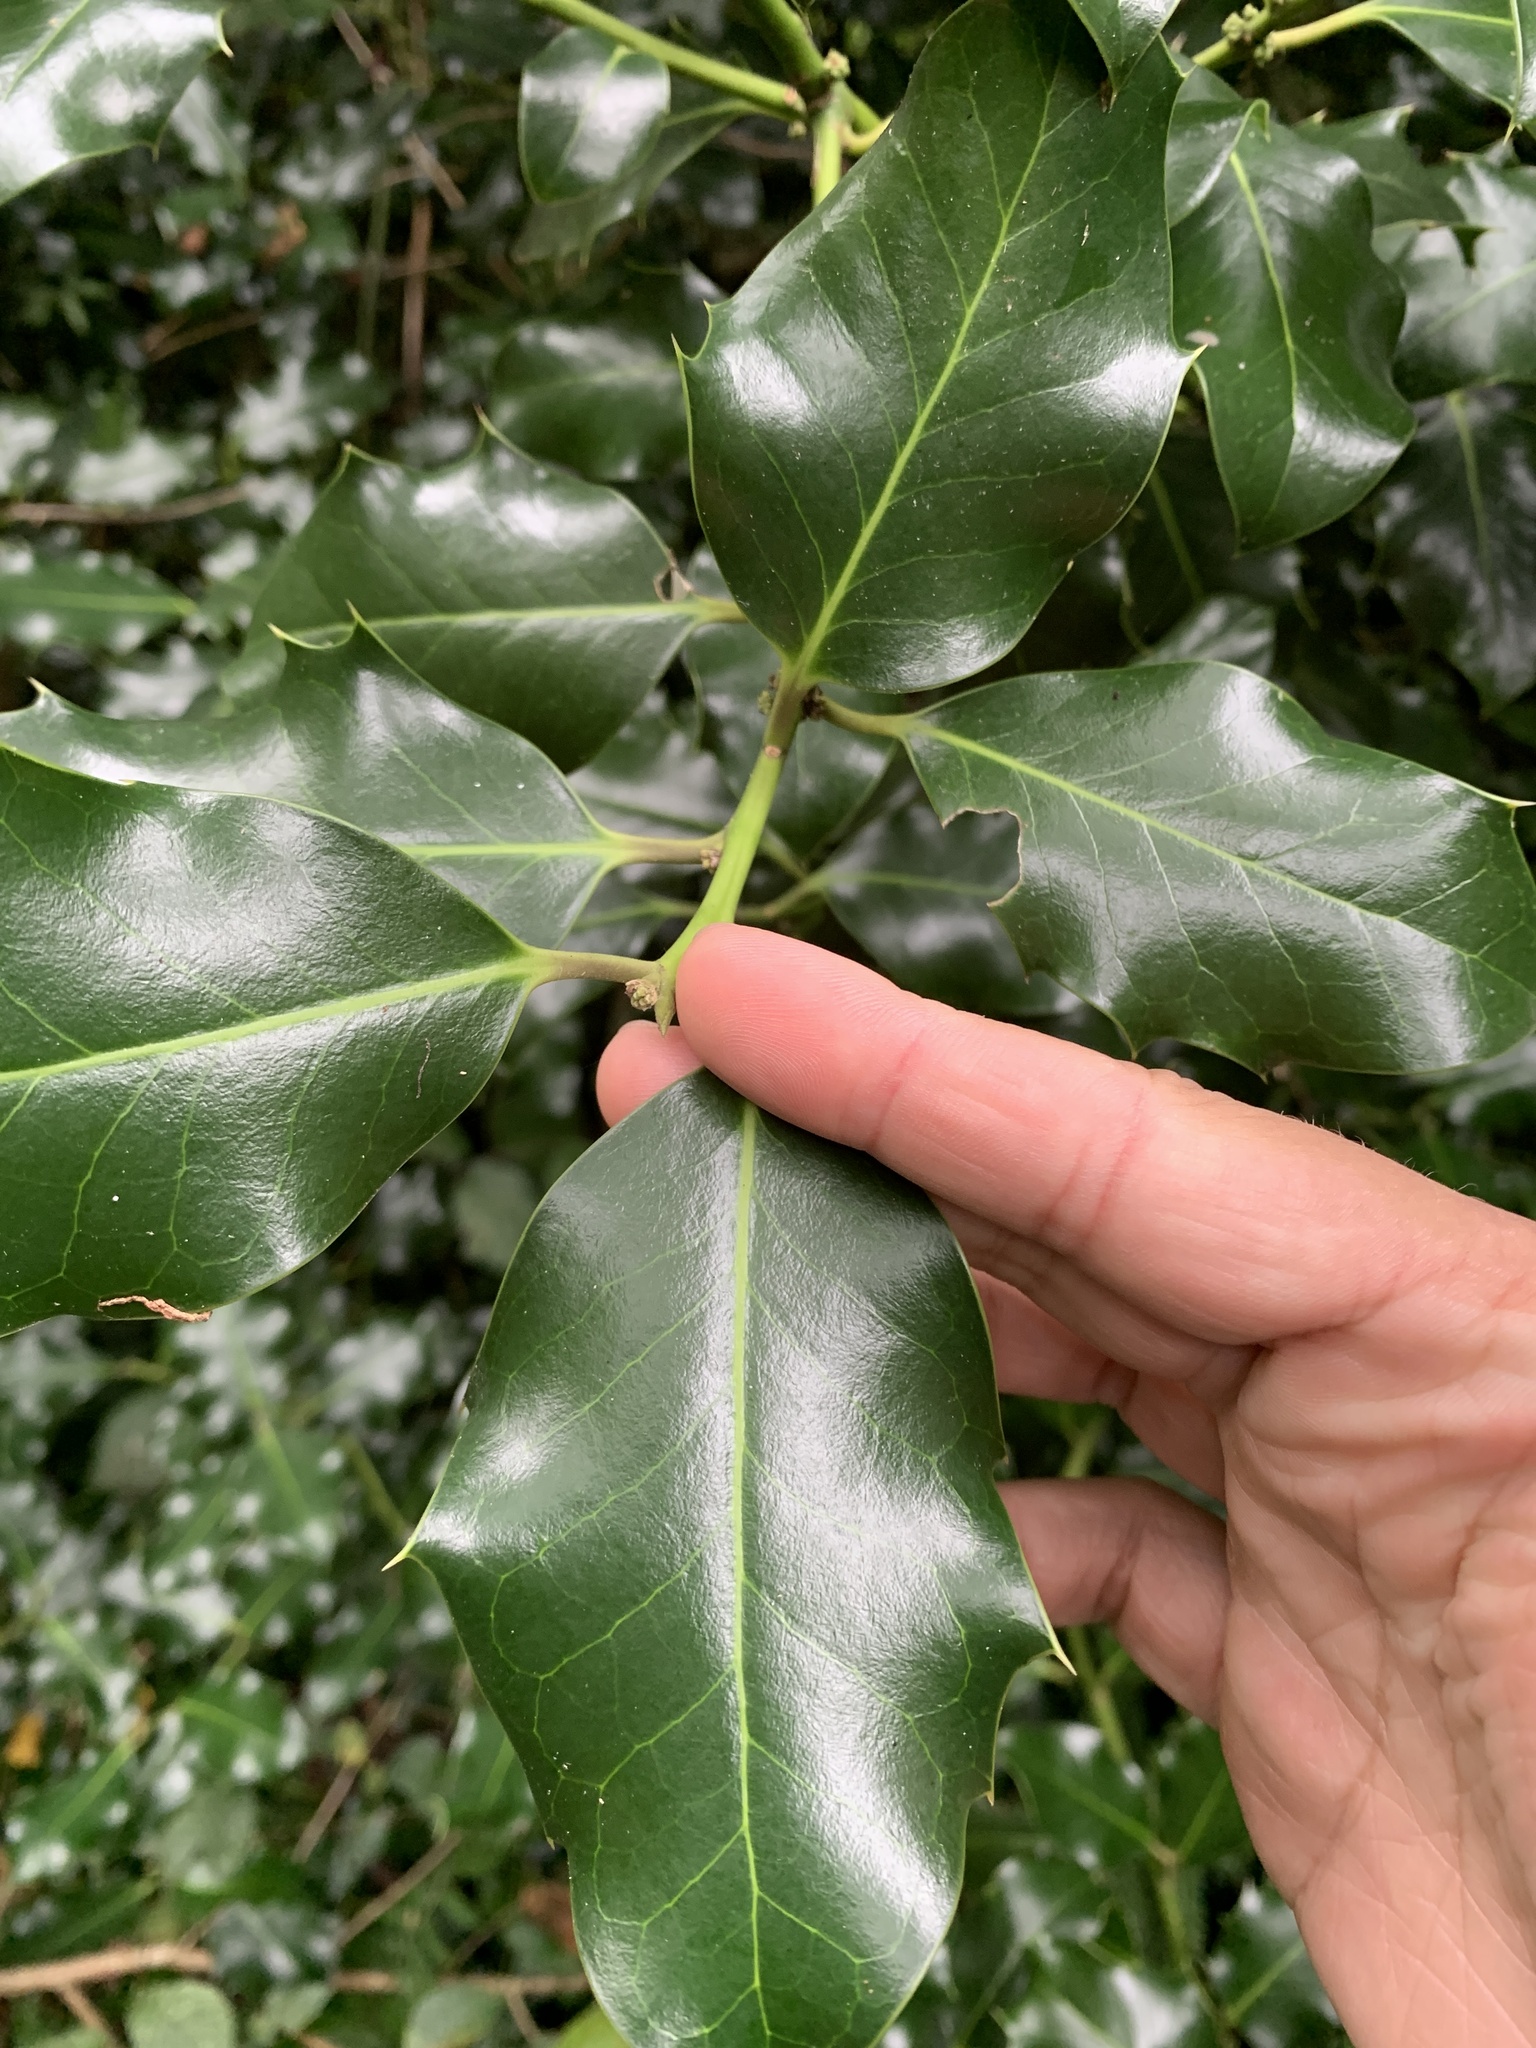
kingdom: Plantae
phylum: Tracheophyta
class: Magnoliopsida
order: Aquifoliales
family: Aquifoliaceae
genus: Ilex
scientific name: Ilex aquifolium
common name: English holly
